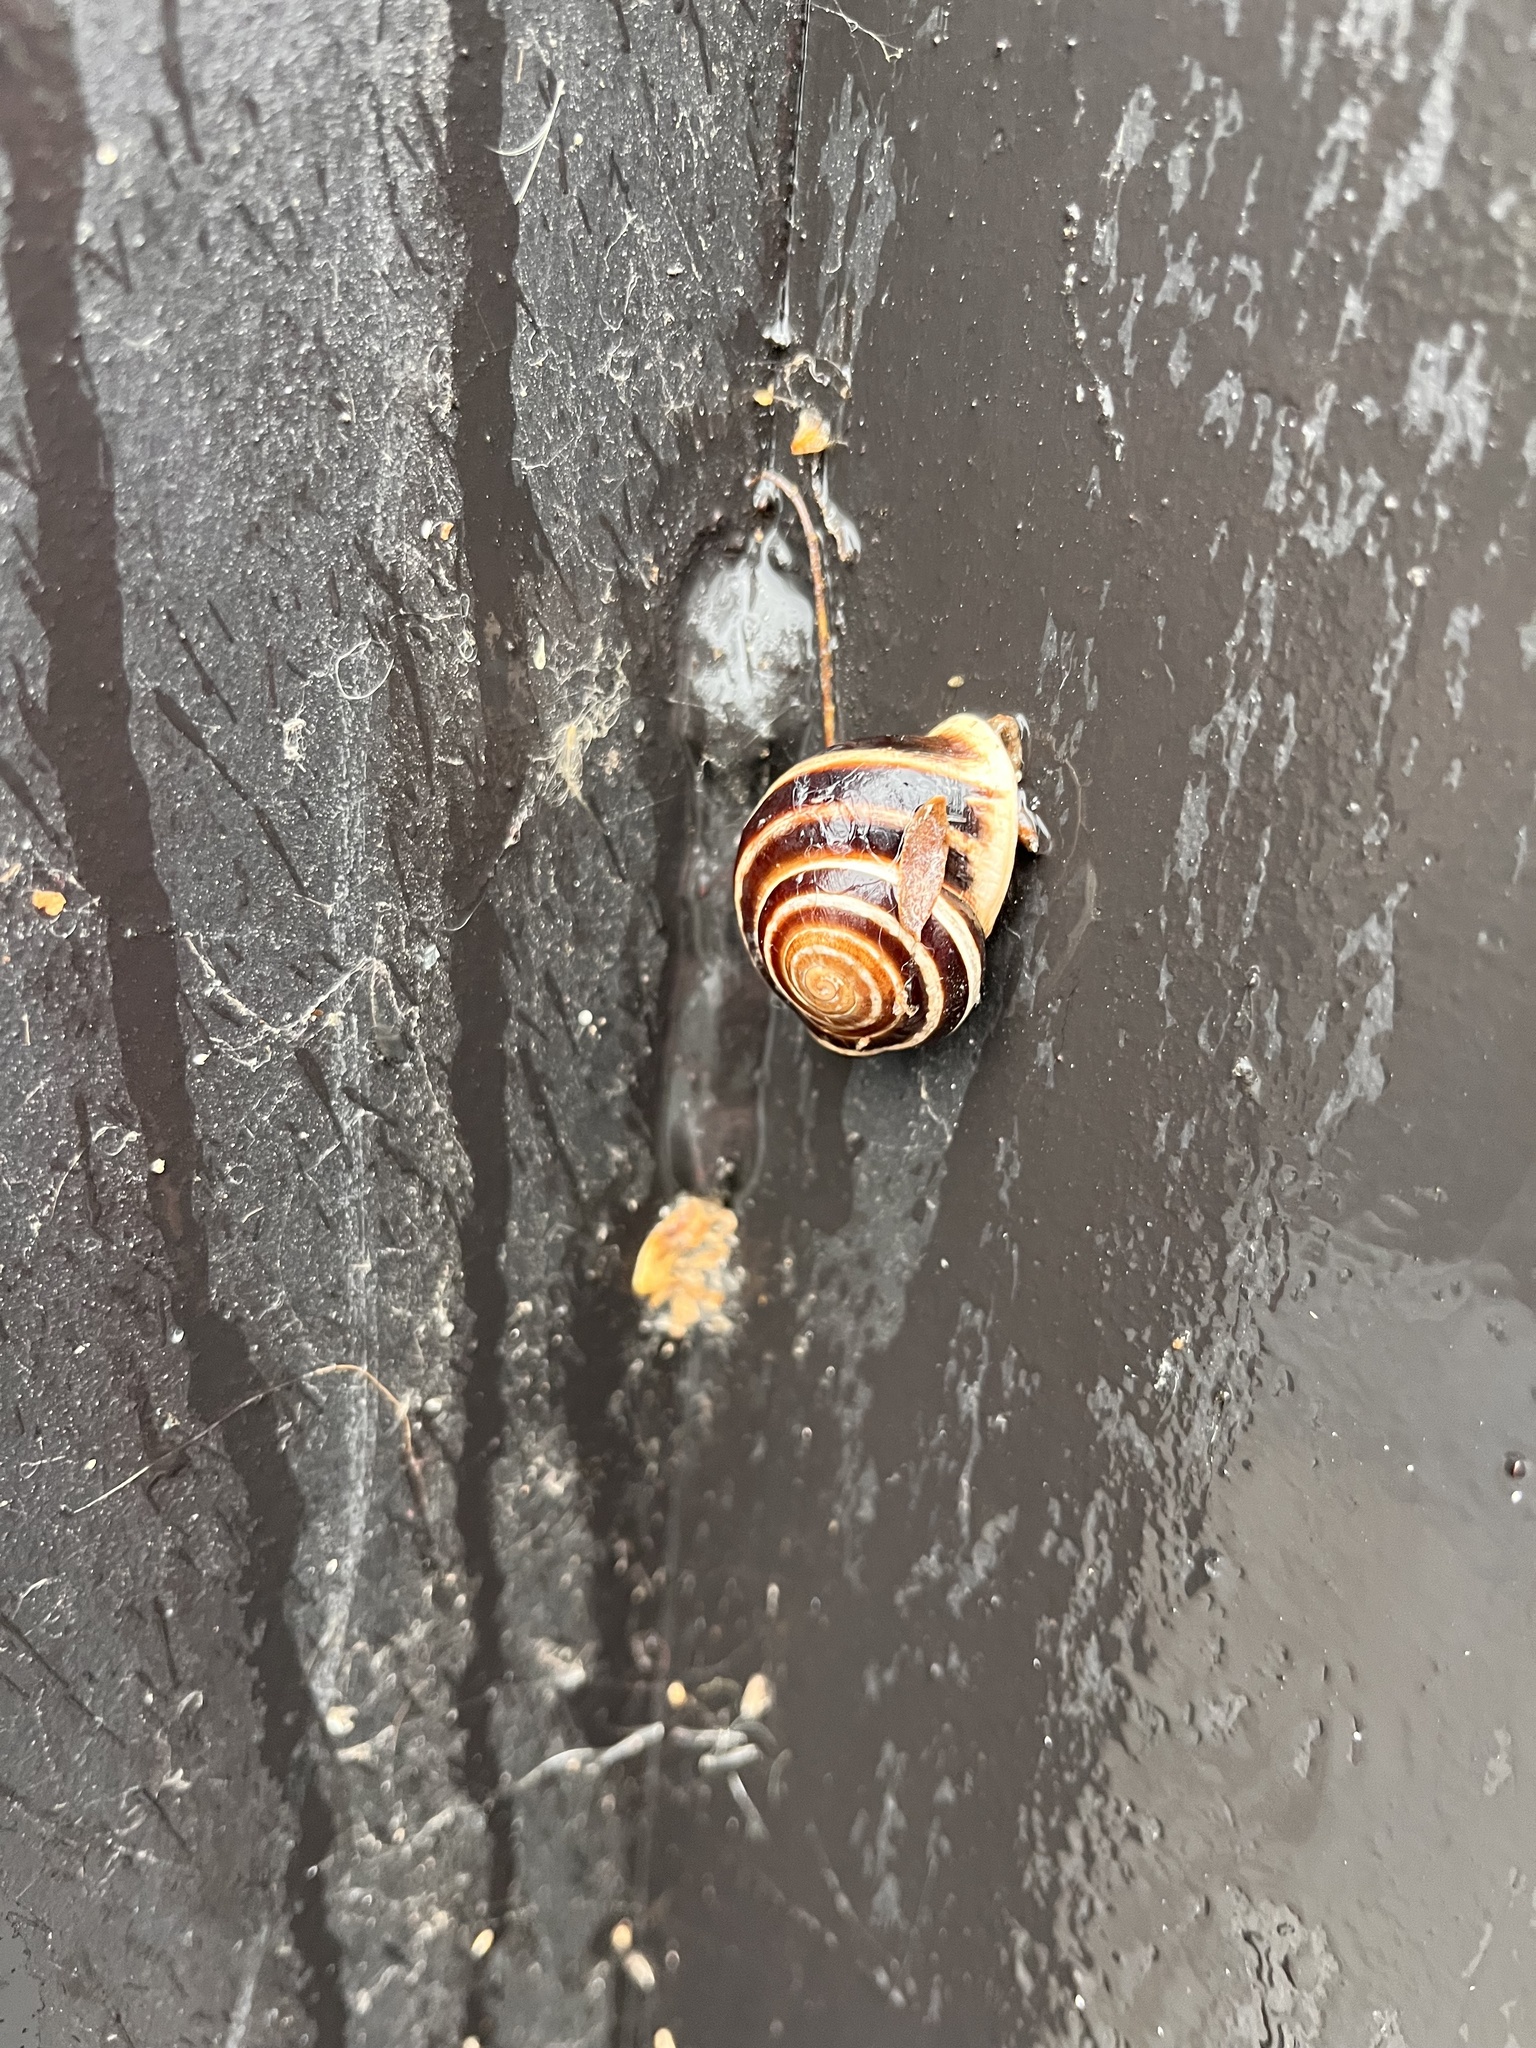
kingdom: Animalia
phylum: Mollusca
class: Gastropoda
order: Stylommatophora
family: Helicidae
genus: Otala
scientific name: Otala lactea
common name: Milk snail
